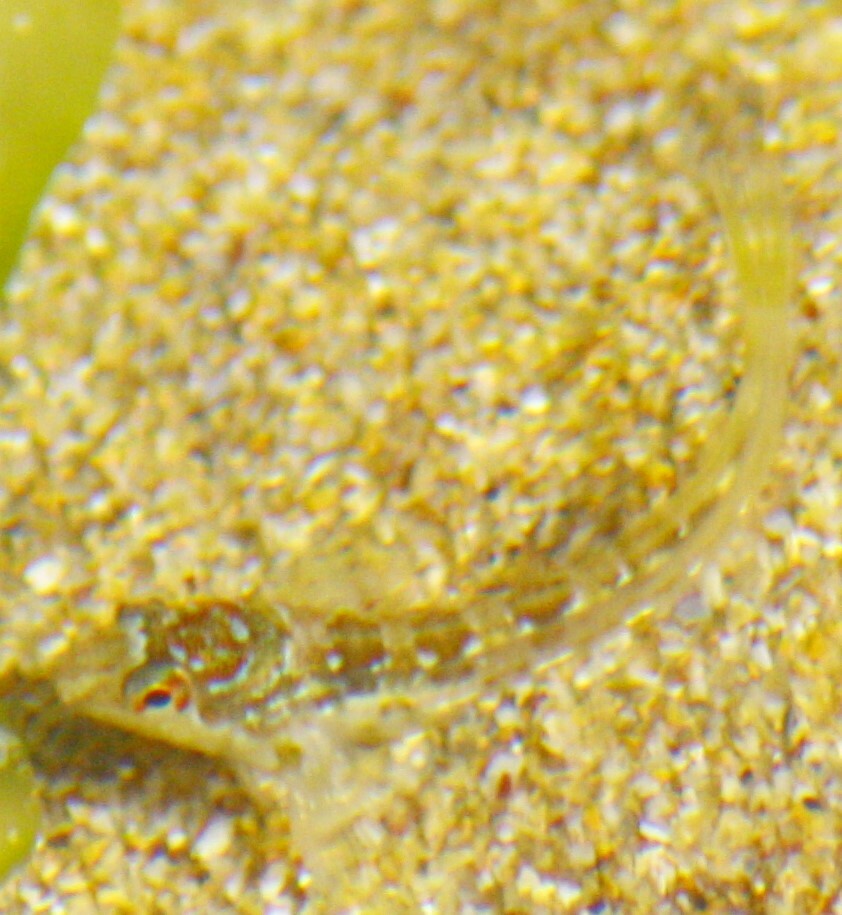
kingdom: Animalia
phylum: Chordata
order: Perciformes
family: Blenniidae
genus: Lipophrys
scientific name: Lipophrys pholis
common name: Shanny
